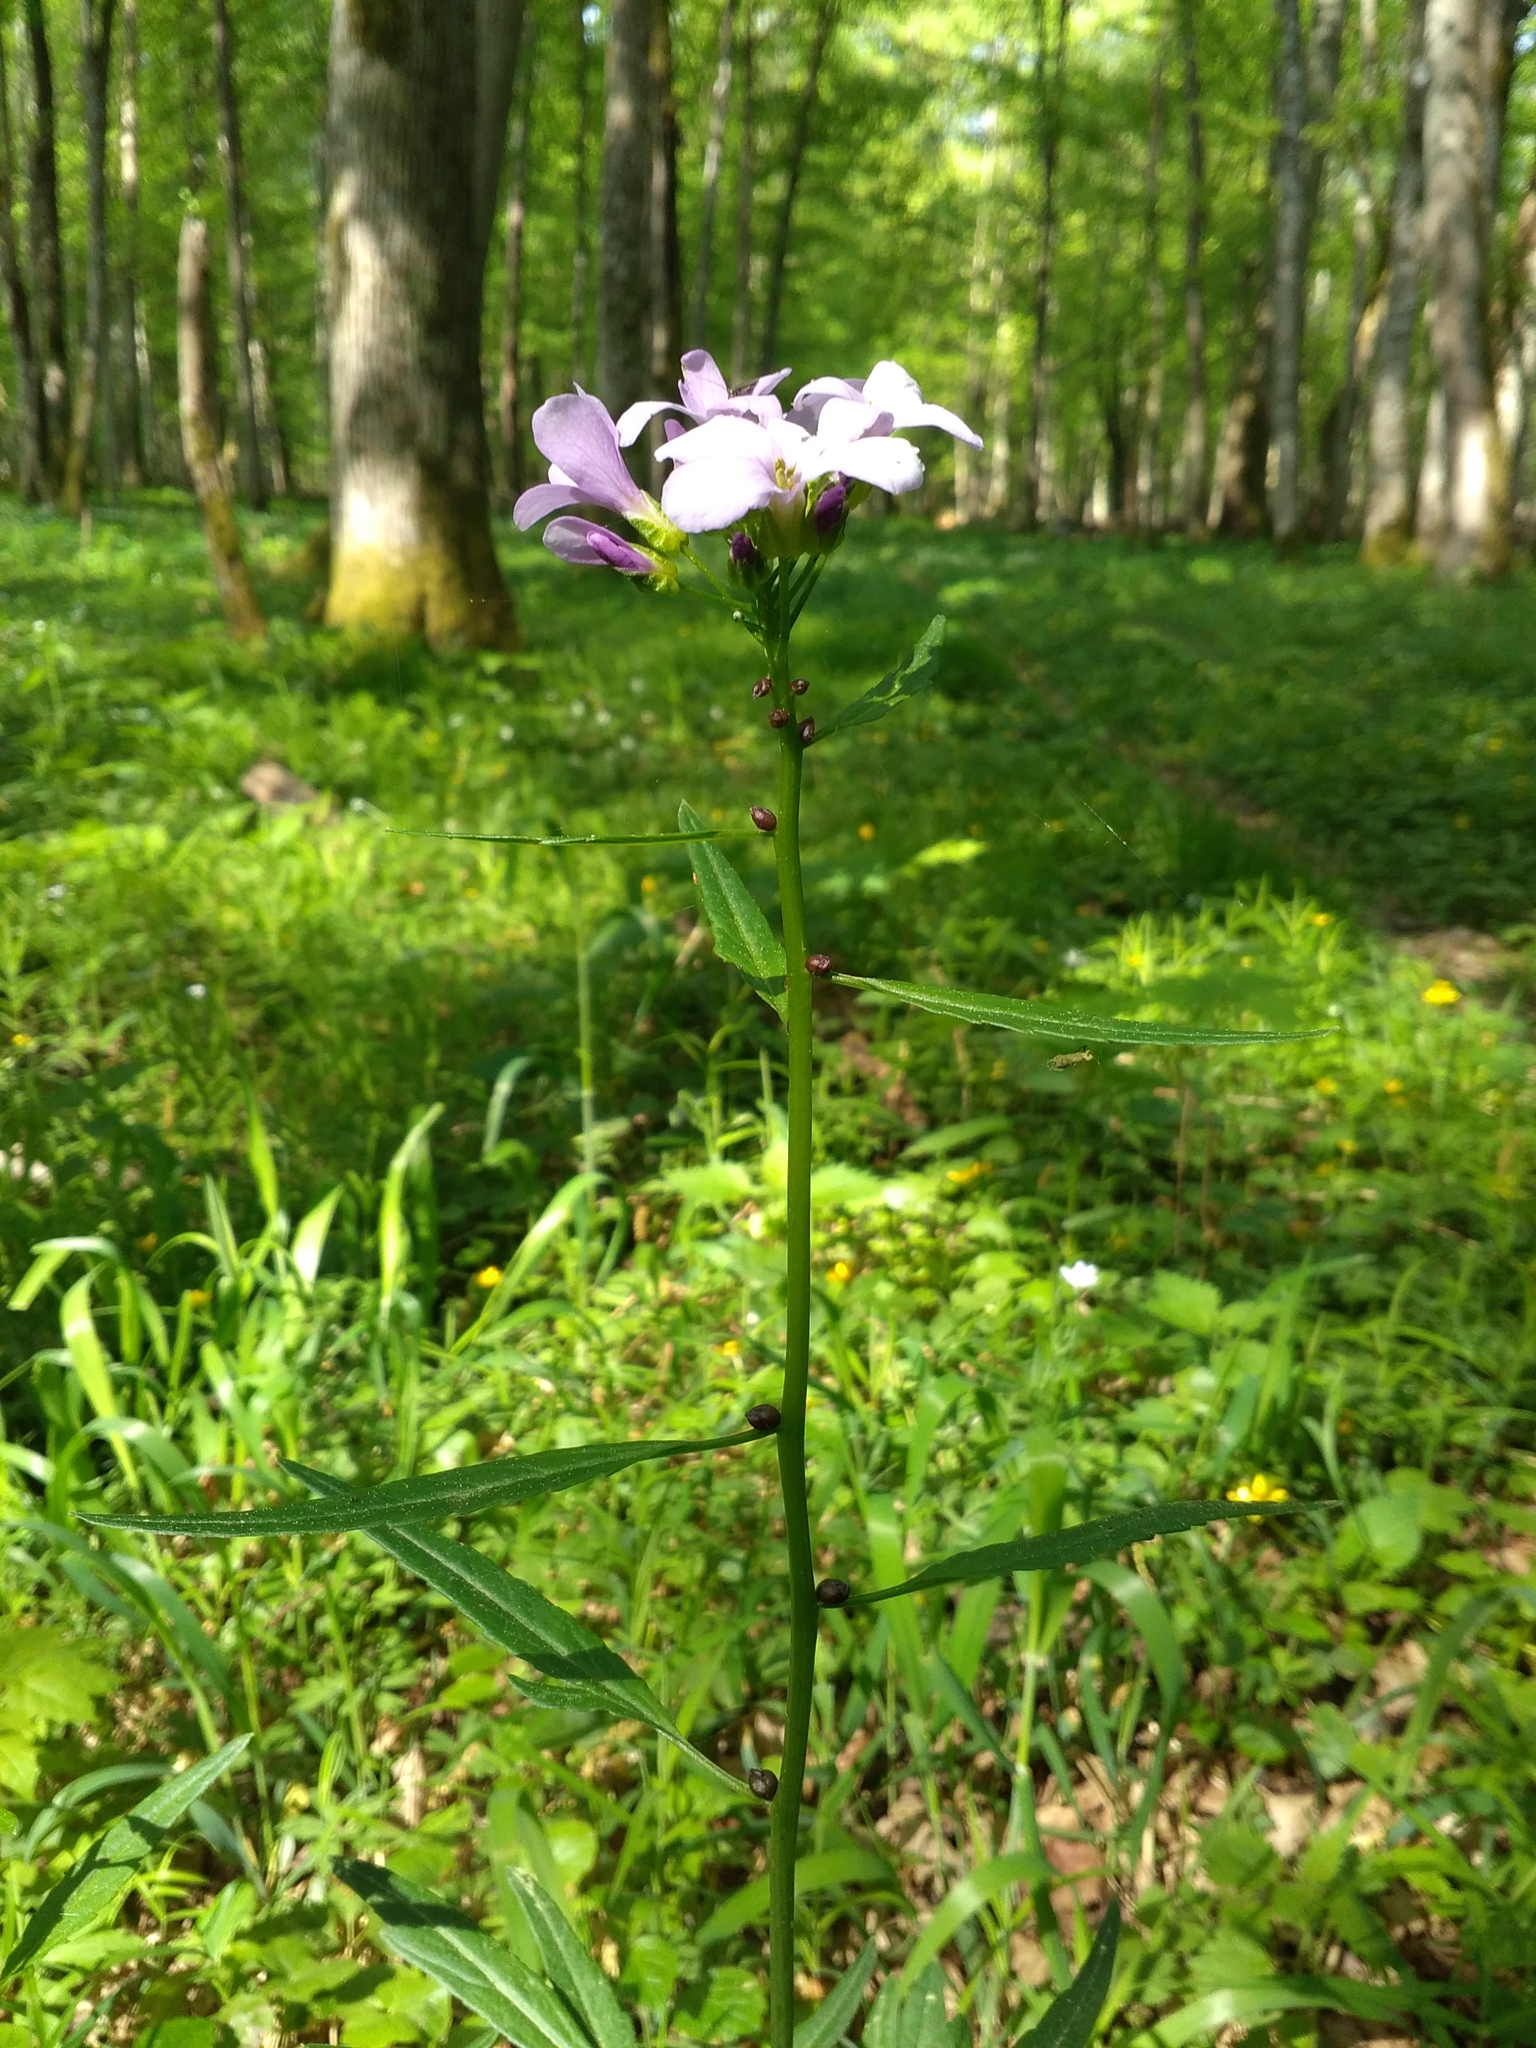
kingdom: Plantae
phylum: Tracheophyta
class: Magnoliopsida
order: Brassicales
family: Brassicaceae
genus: Cardamine
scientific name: Cardamine bulbifera
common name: Coralroot bittercress
